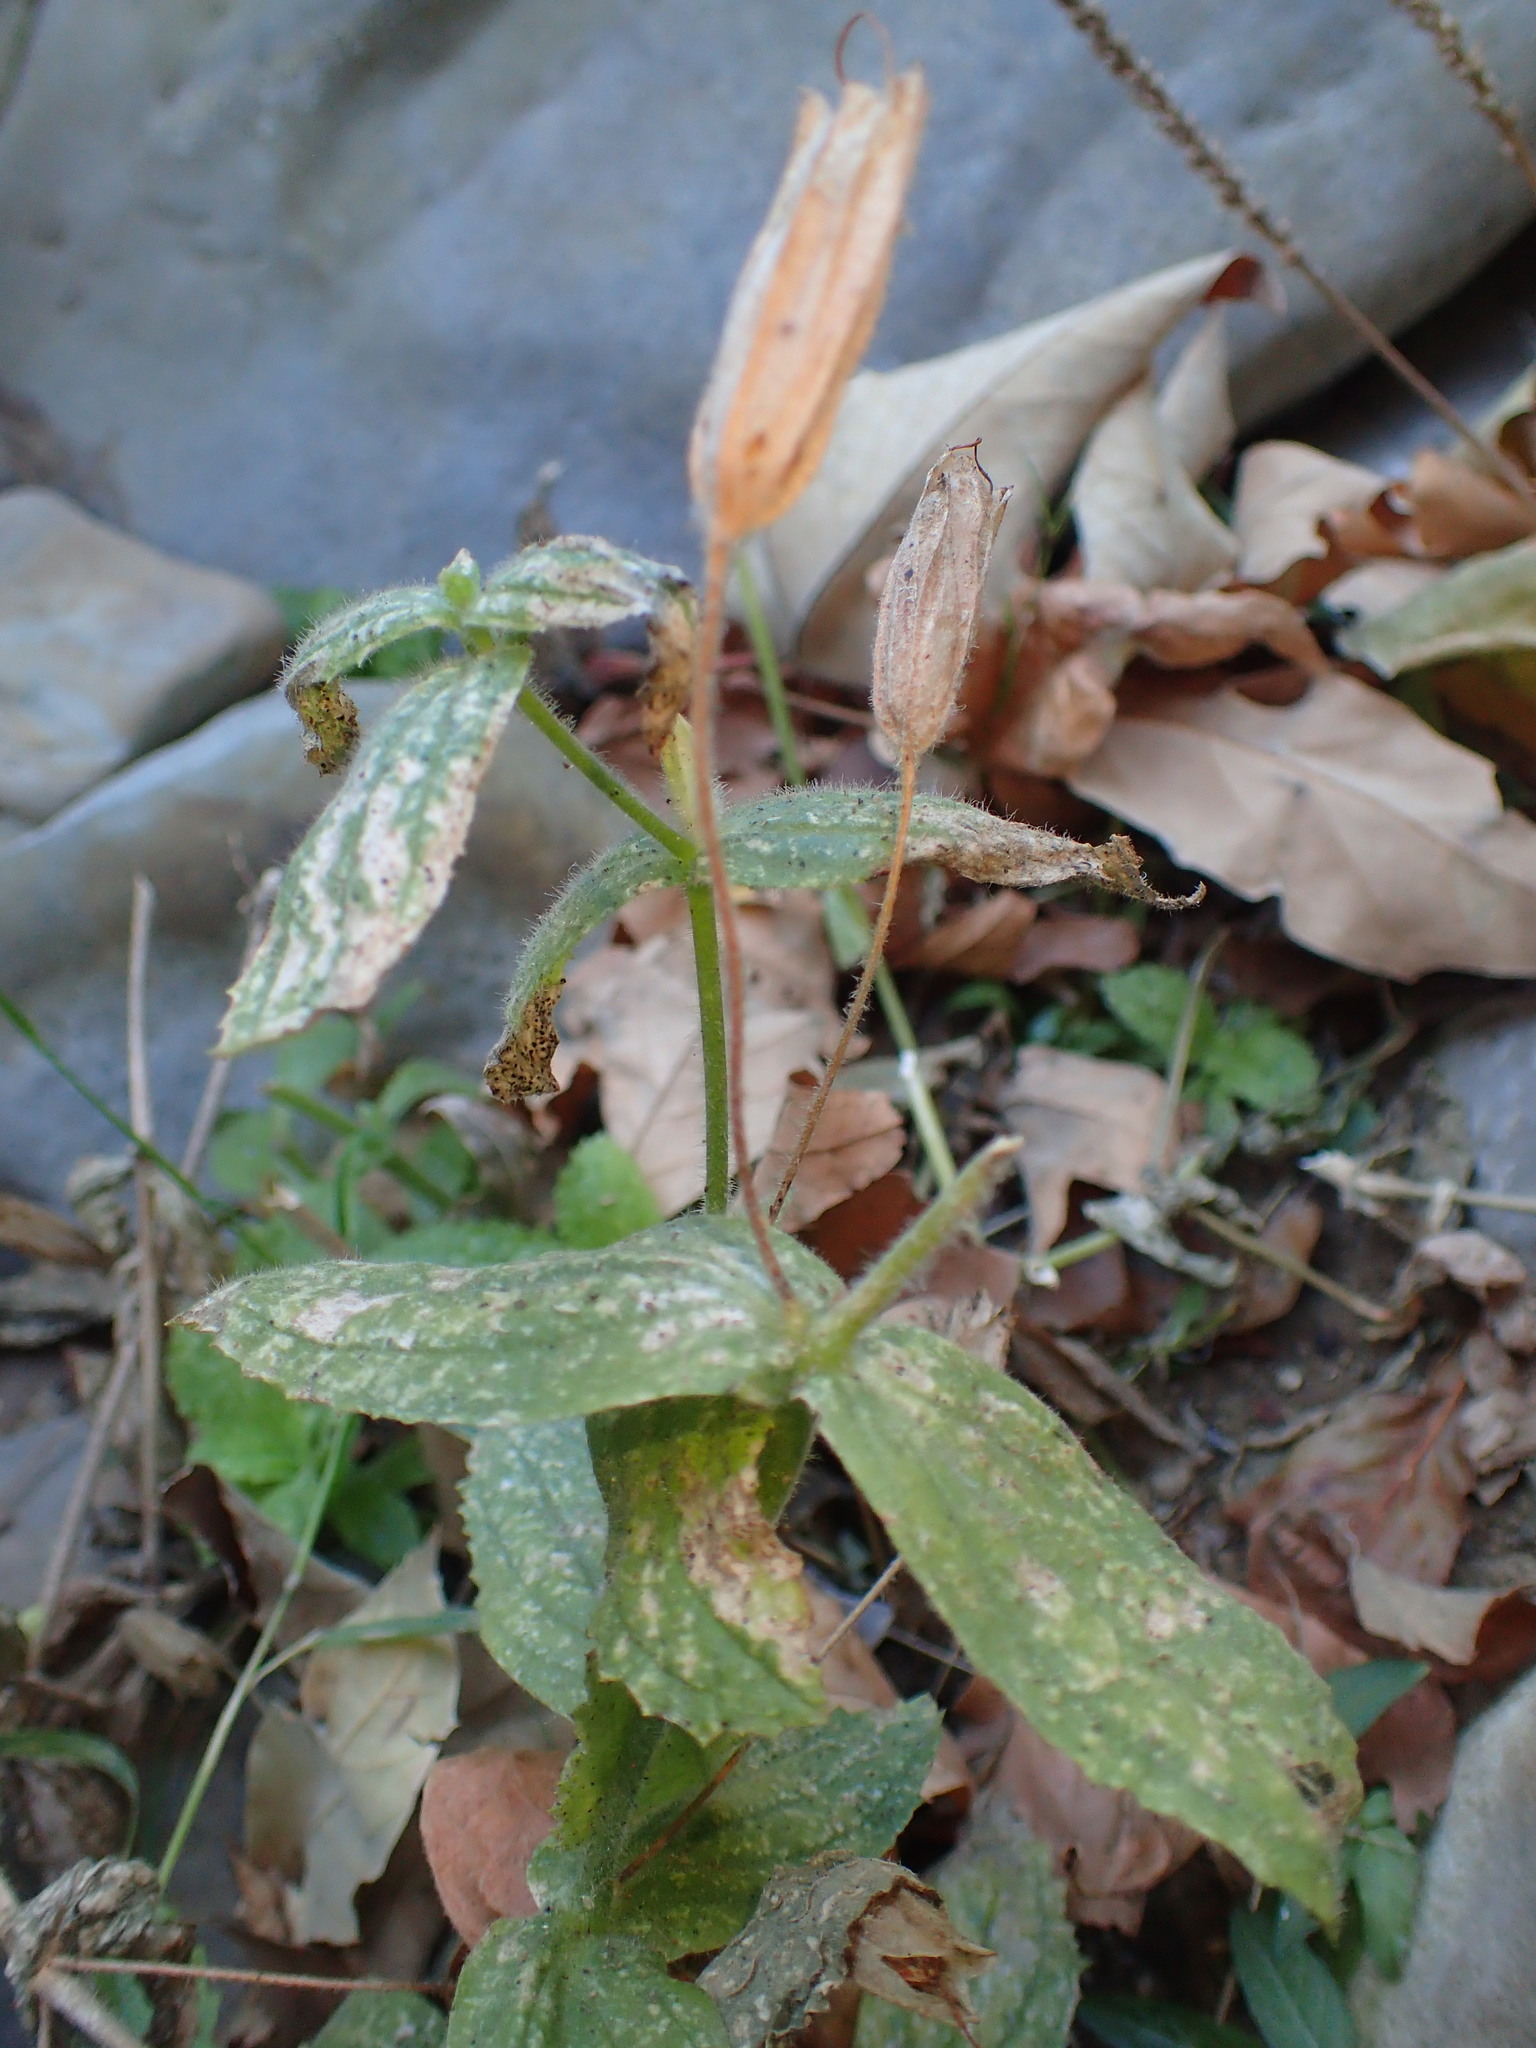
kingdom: Plantae
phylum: Tracheophyta
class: Magnoliopsida
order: Lamiales
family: Phrymaceae
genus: Erythranthe
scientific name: Erythranthe cardinalis
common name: Scarlet monkey-flower
